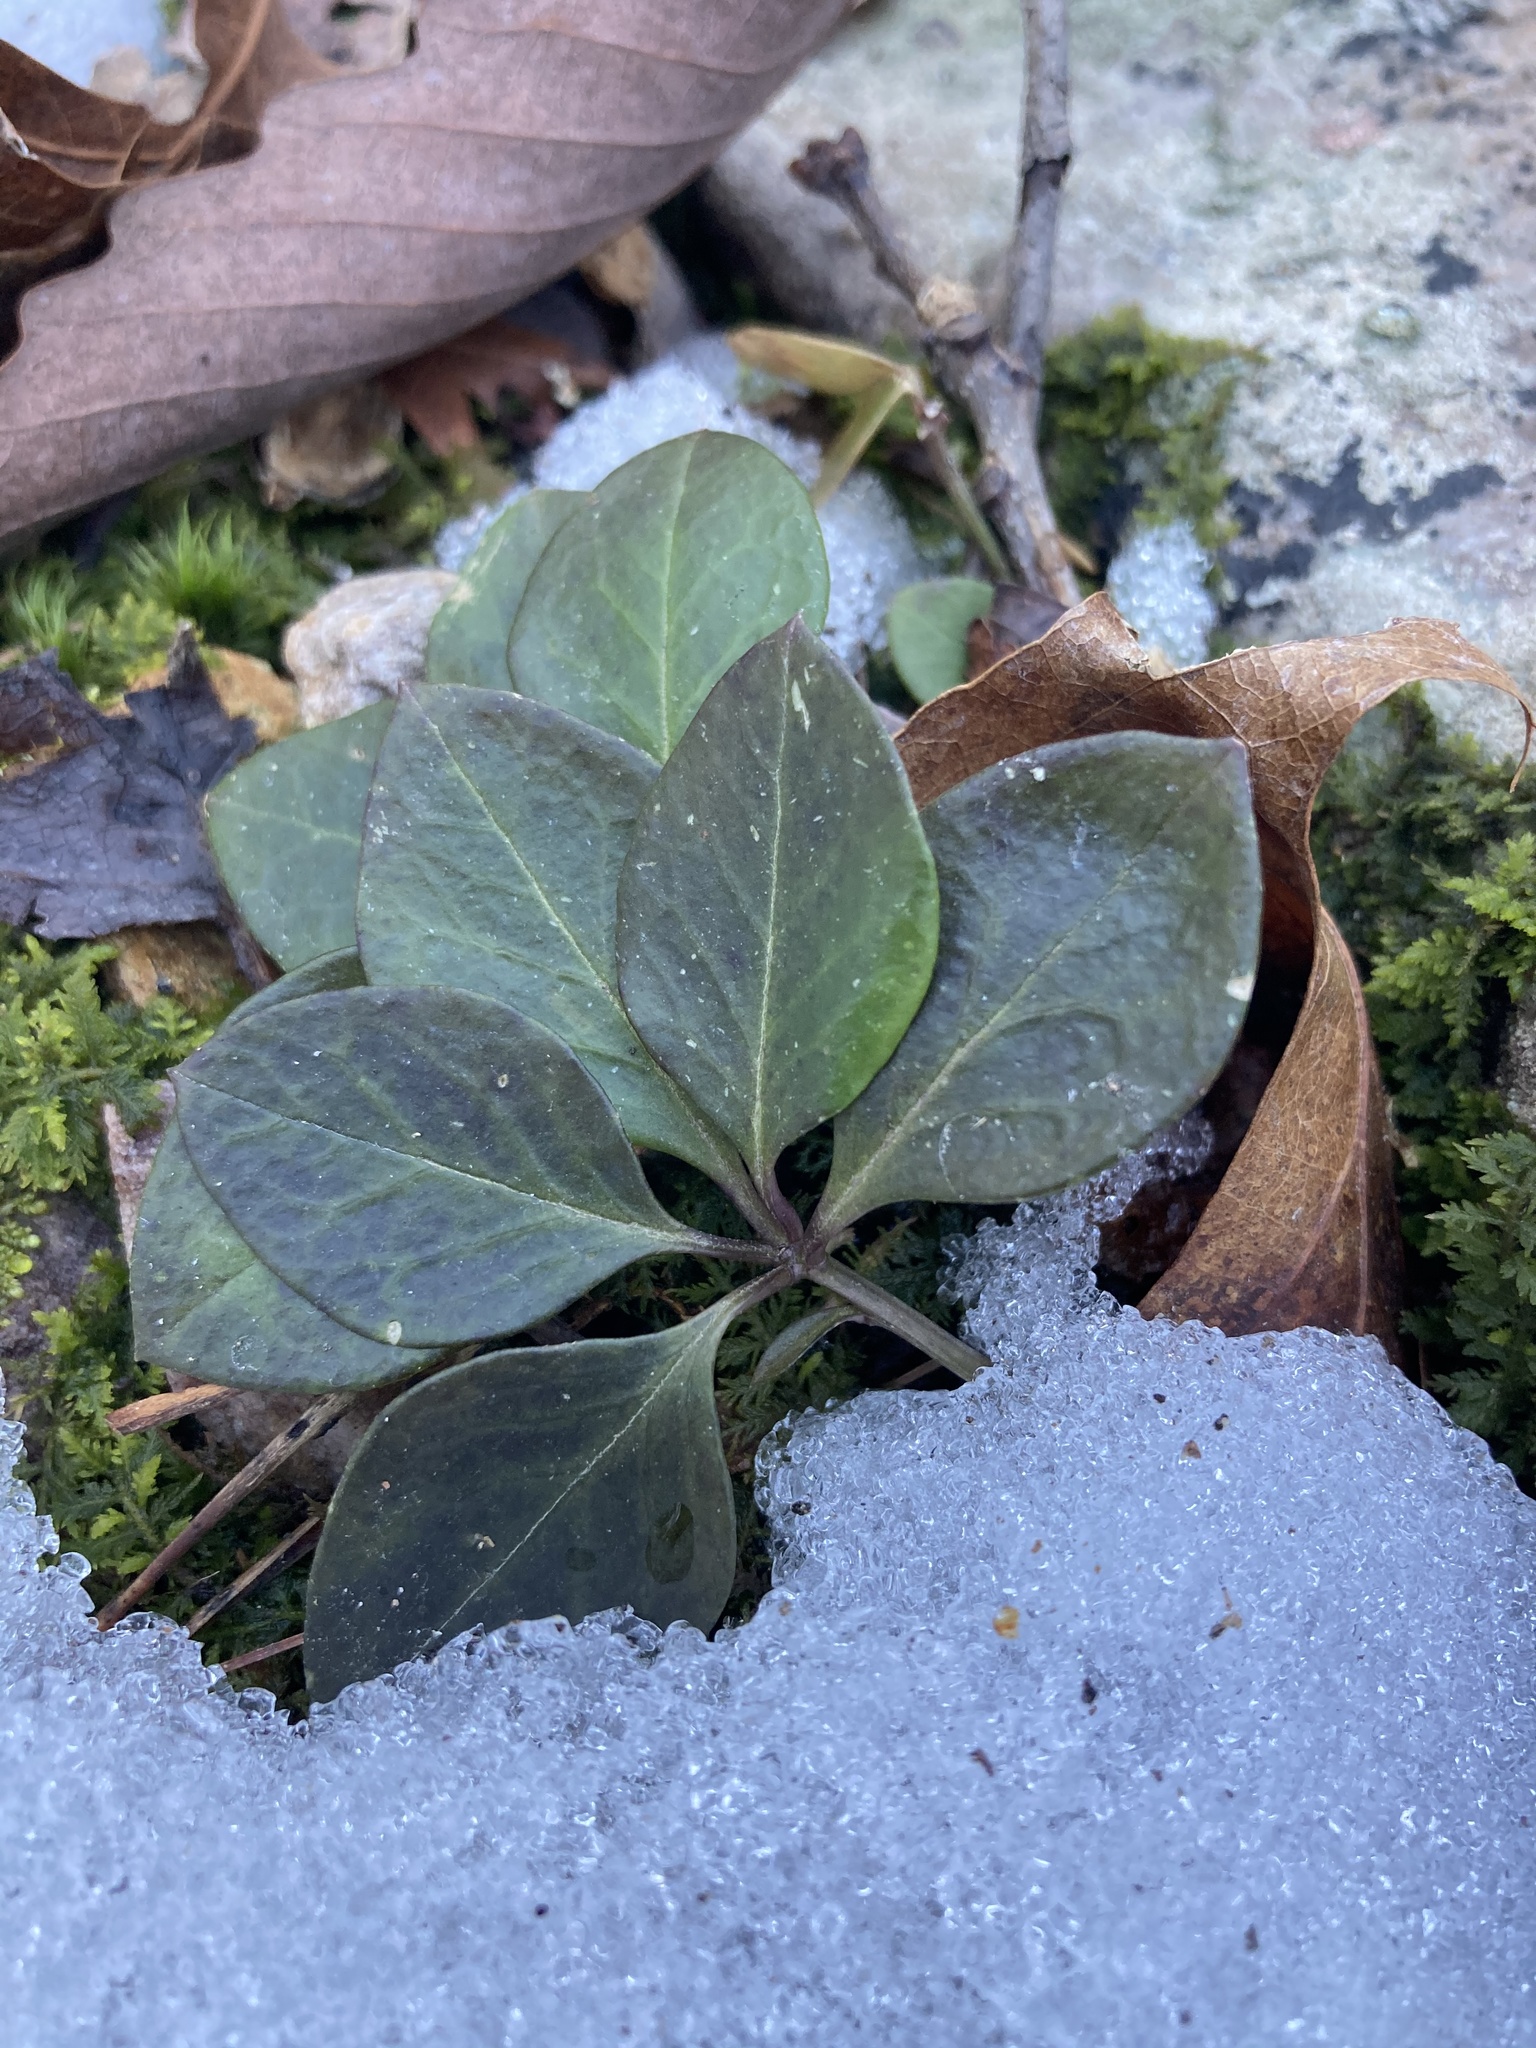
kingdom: Plantae
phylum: Tracheophyta
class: Magnoliopsida
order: Fabales
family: Polygalaceae
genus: Polygaloides
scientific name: Polygaloides paucifolia
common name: Bird-on-the-wing
